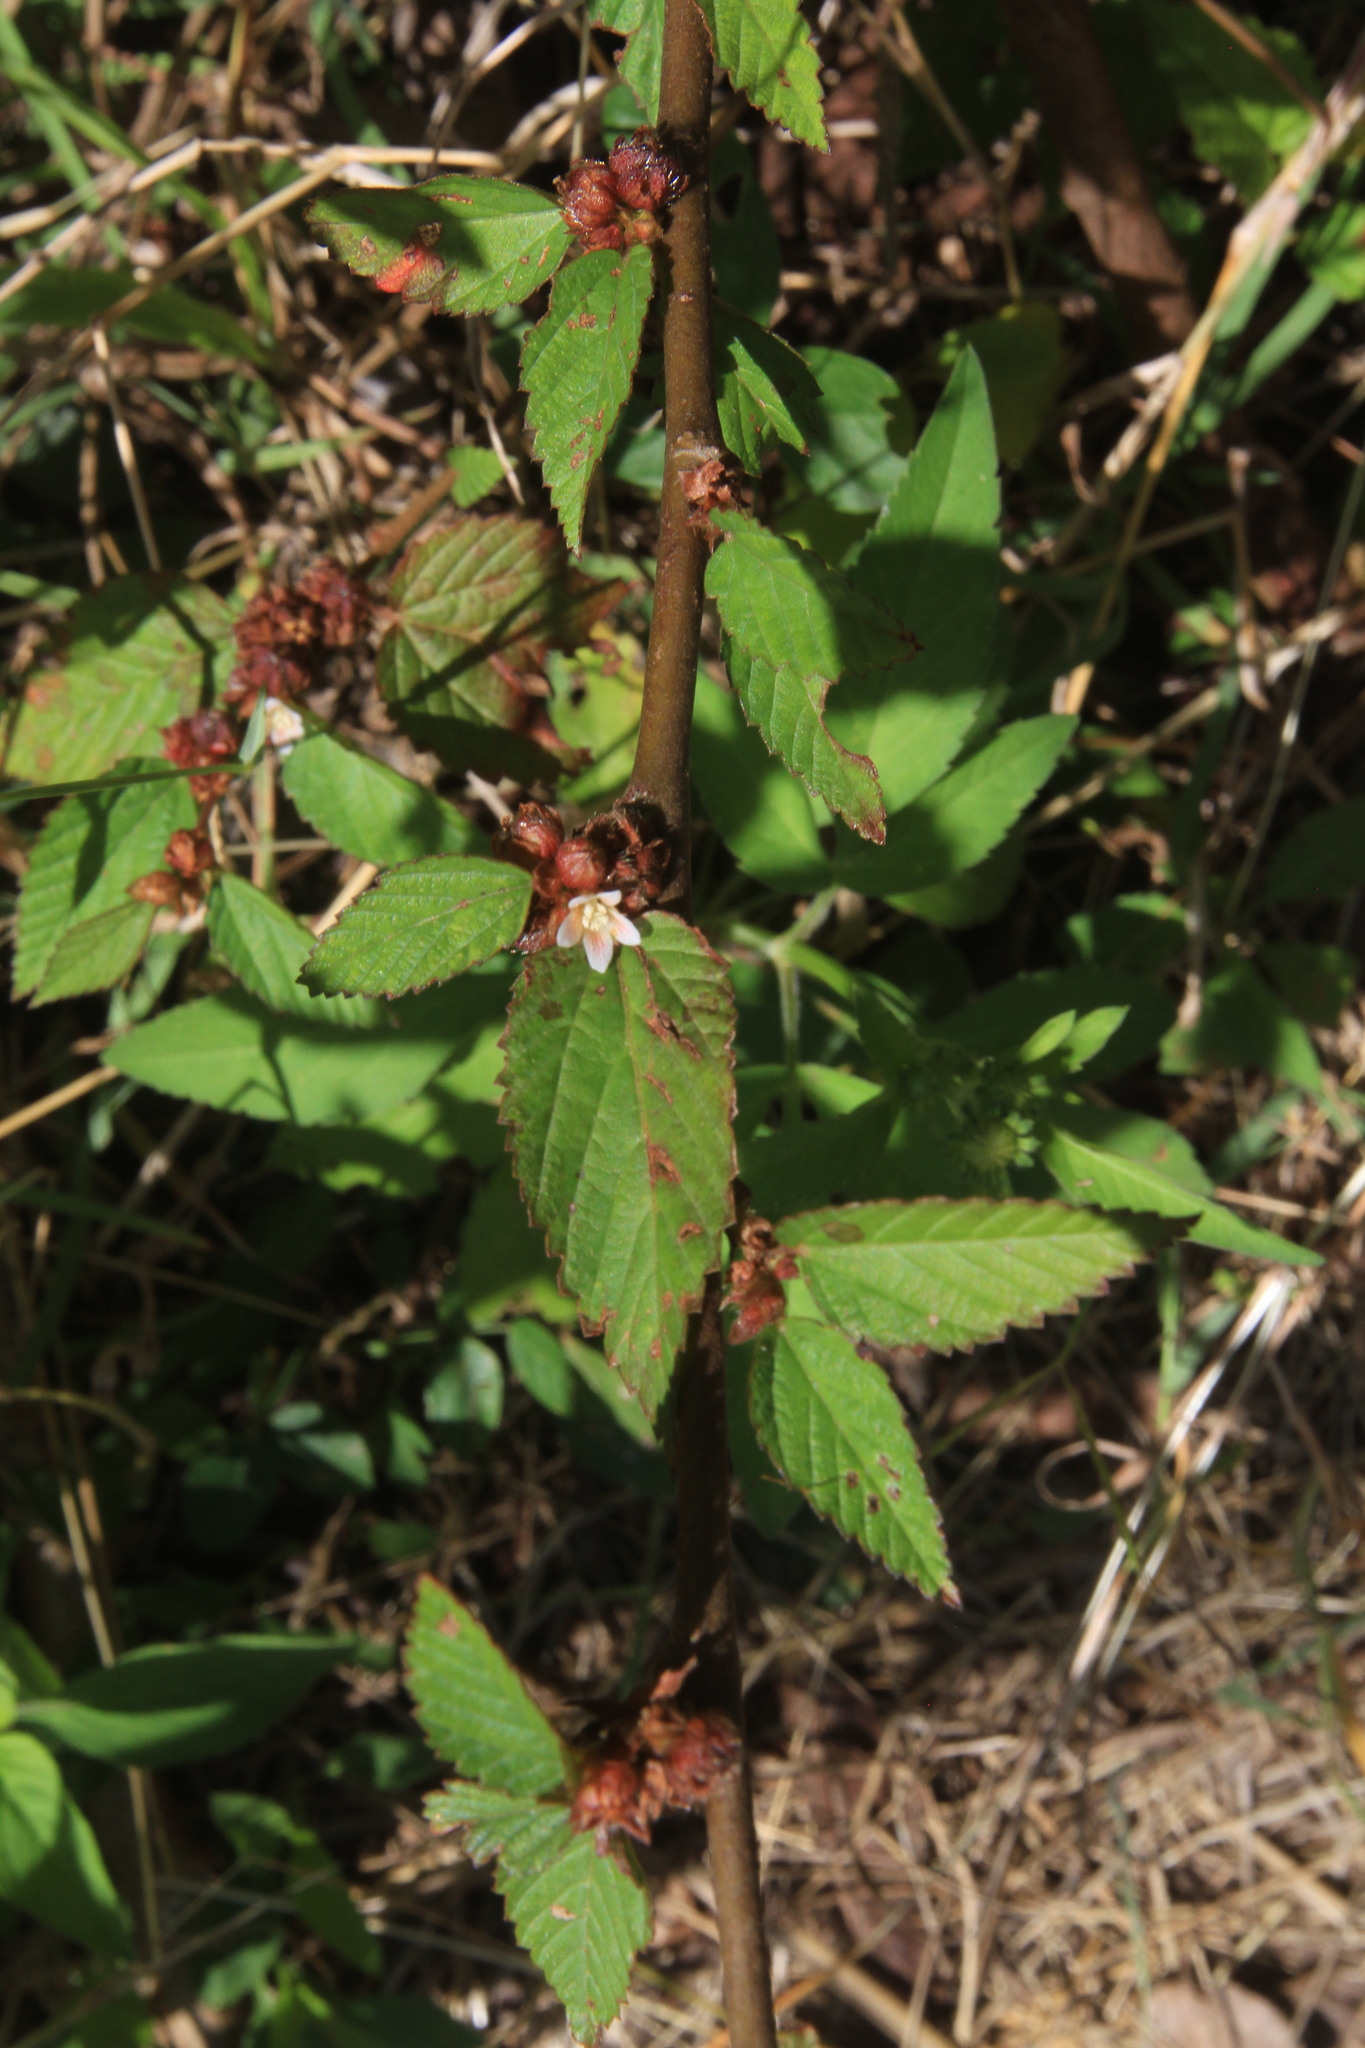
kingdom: Plantae
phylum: Tracheophyta
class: Magnoliopsida
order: Malvales
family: Malvaceae
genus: Melochia
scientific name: Melochia nodiflora
